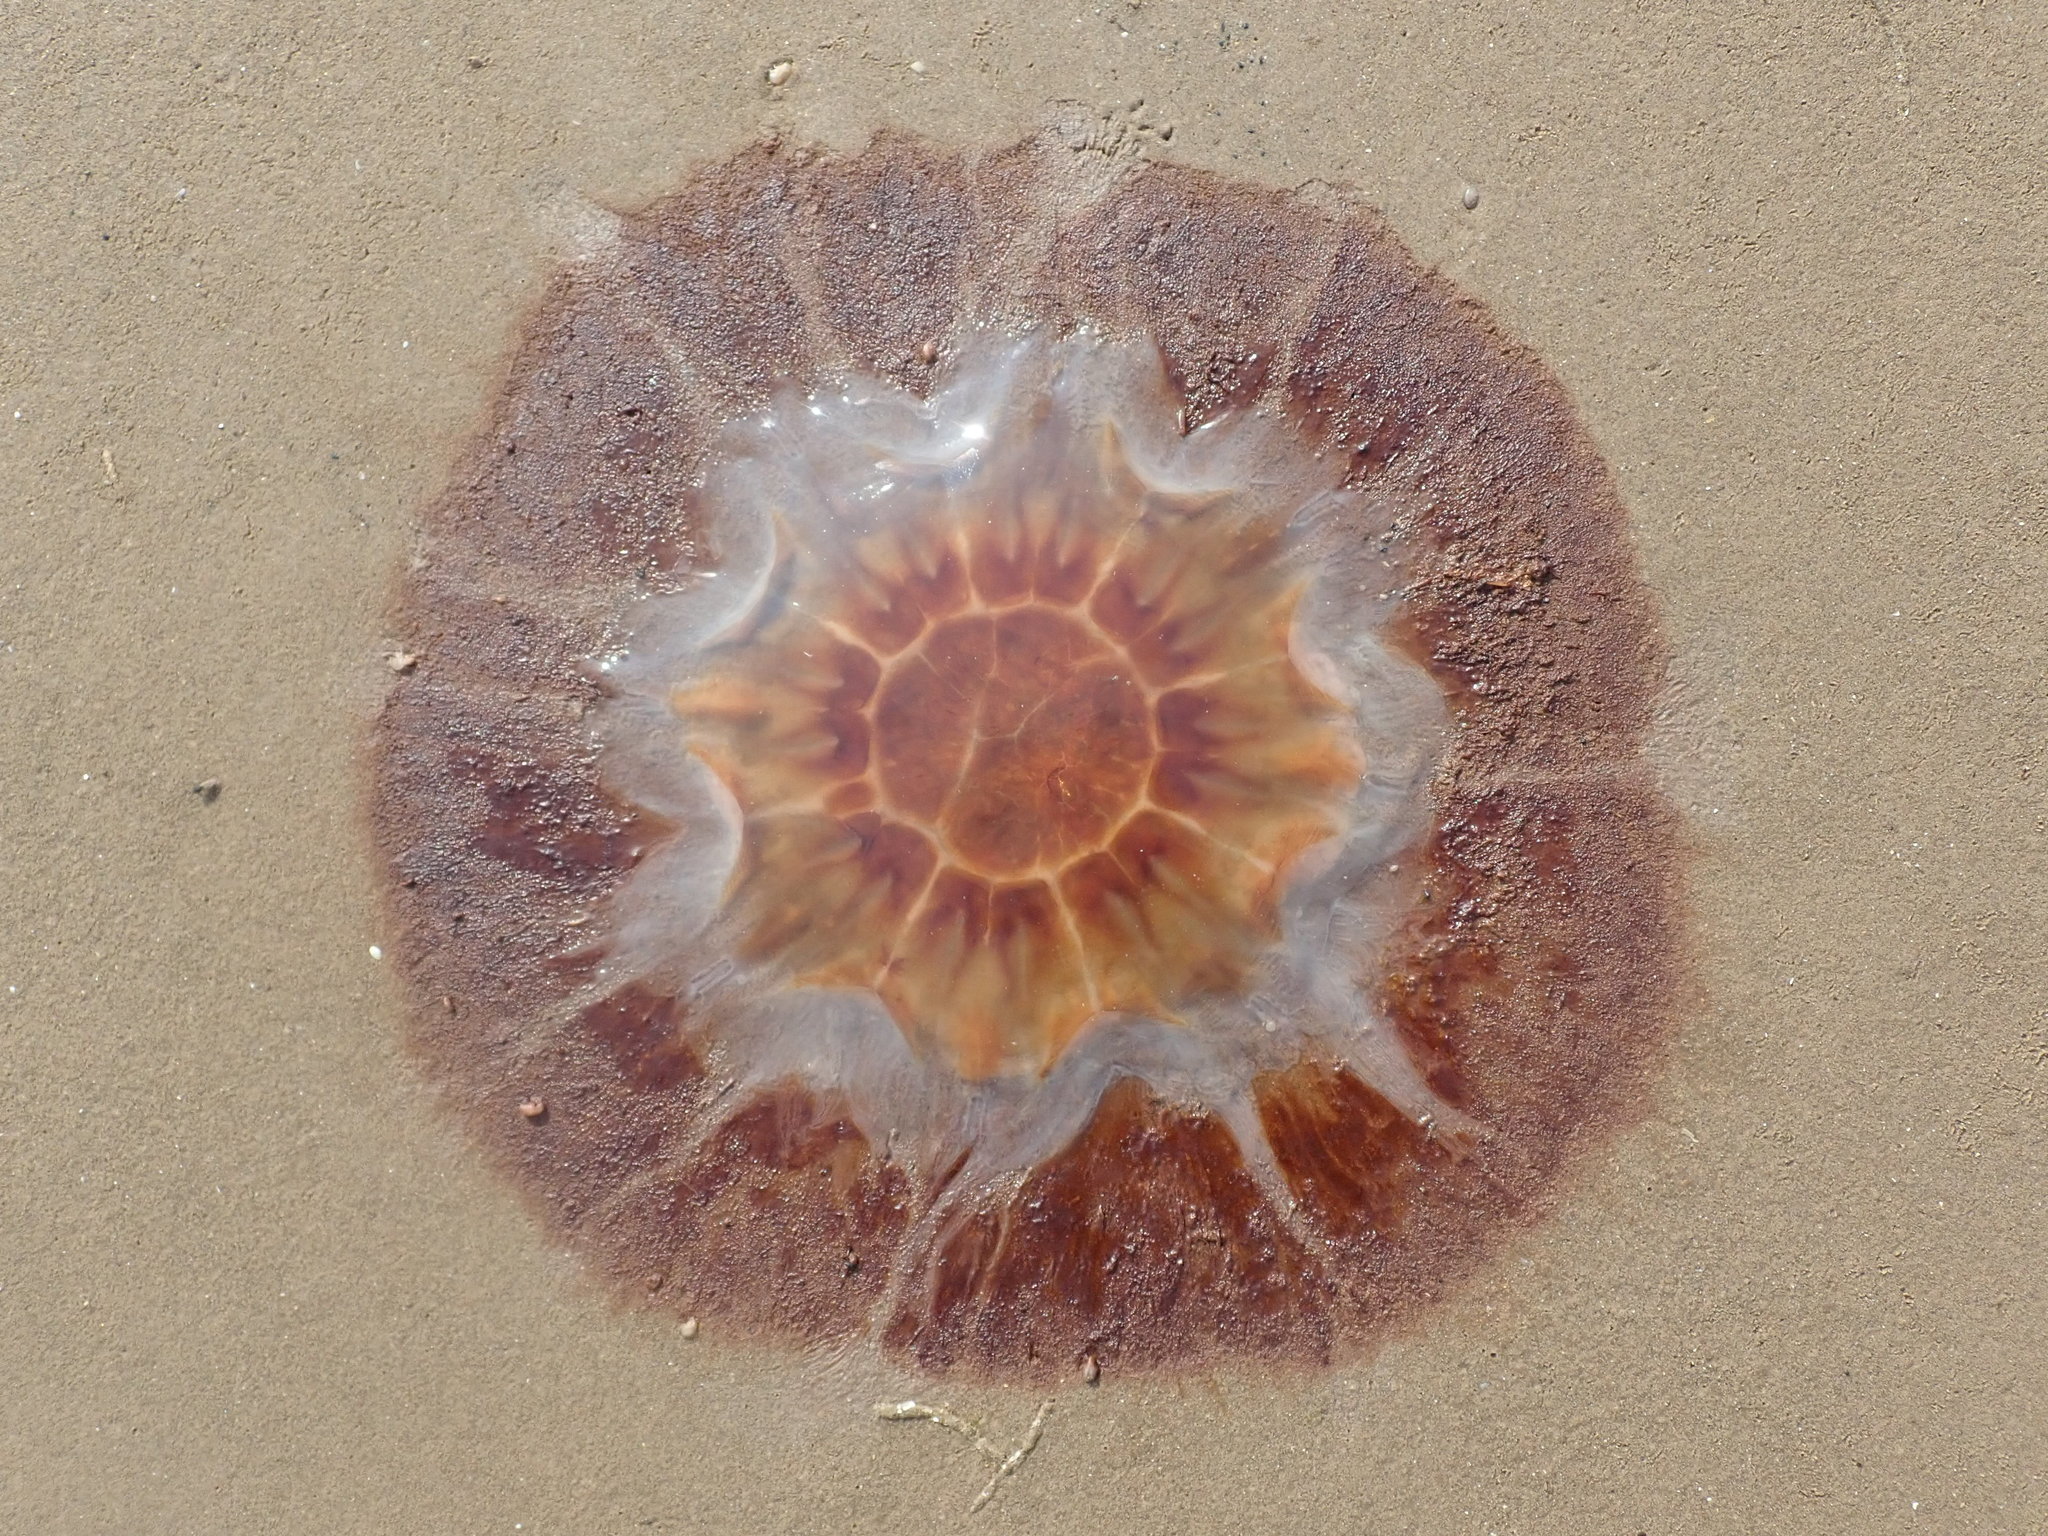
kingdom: Animalia
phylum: Cnidaria
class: Scyphozoa
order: Semaeostomeae
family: Cyaneidae
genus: Cyanea
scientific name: Cyanea capillata
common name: Lion's mane jellyfish
